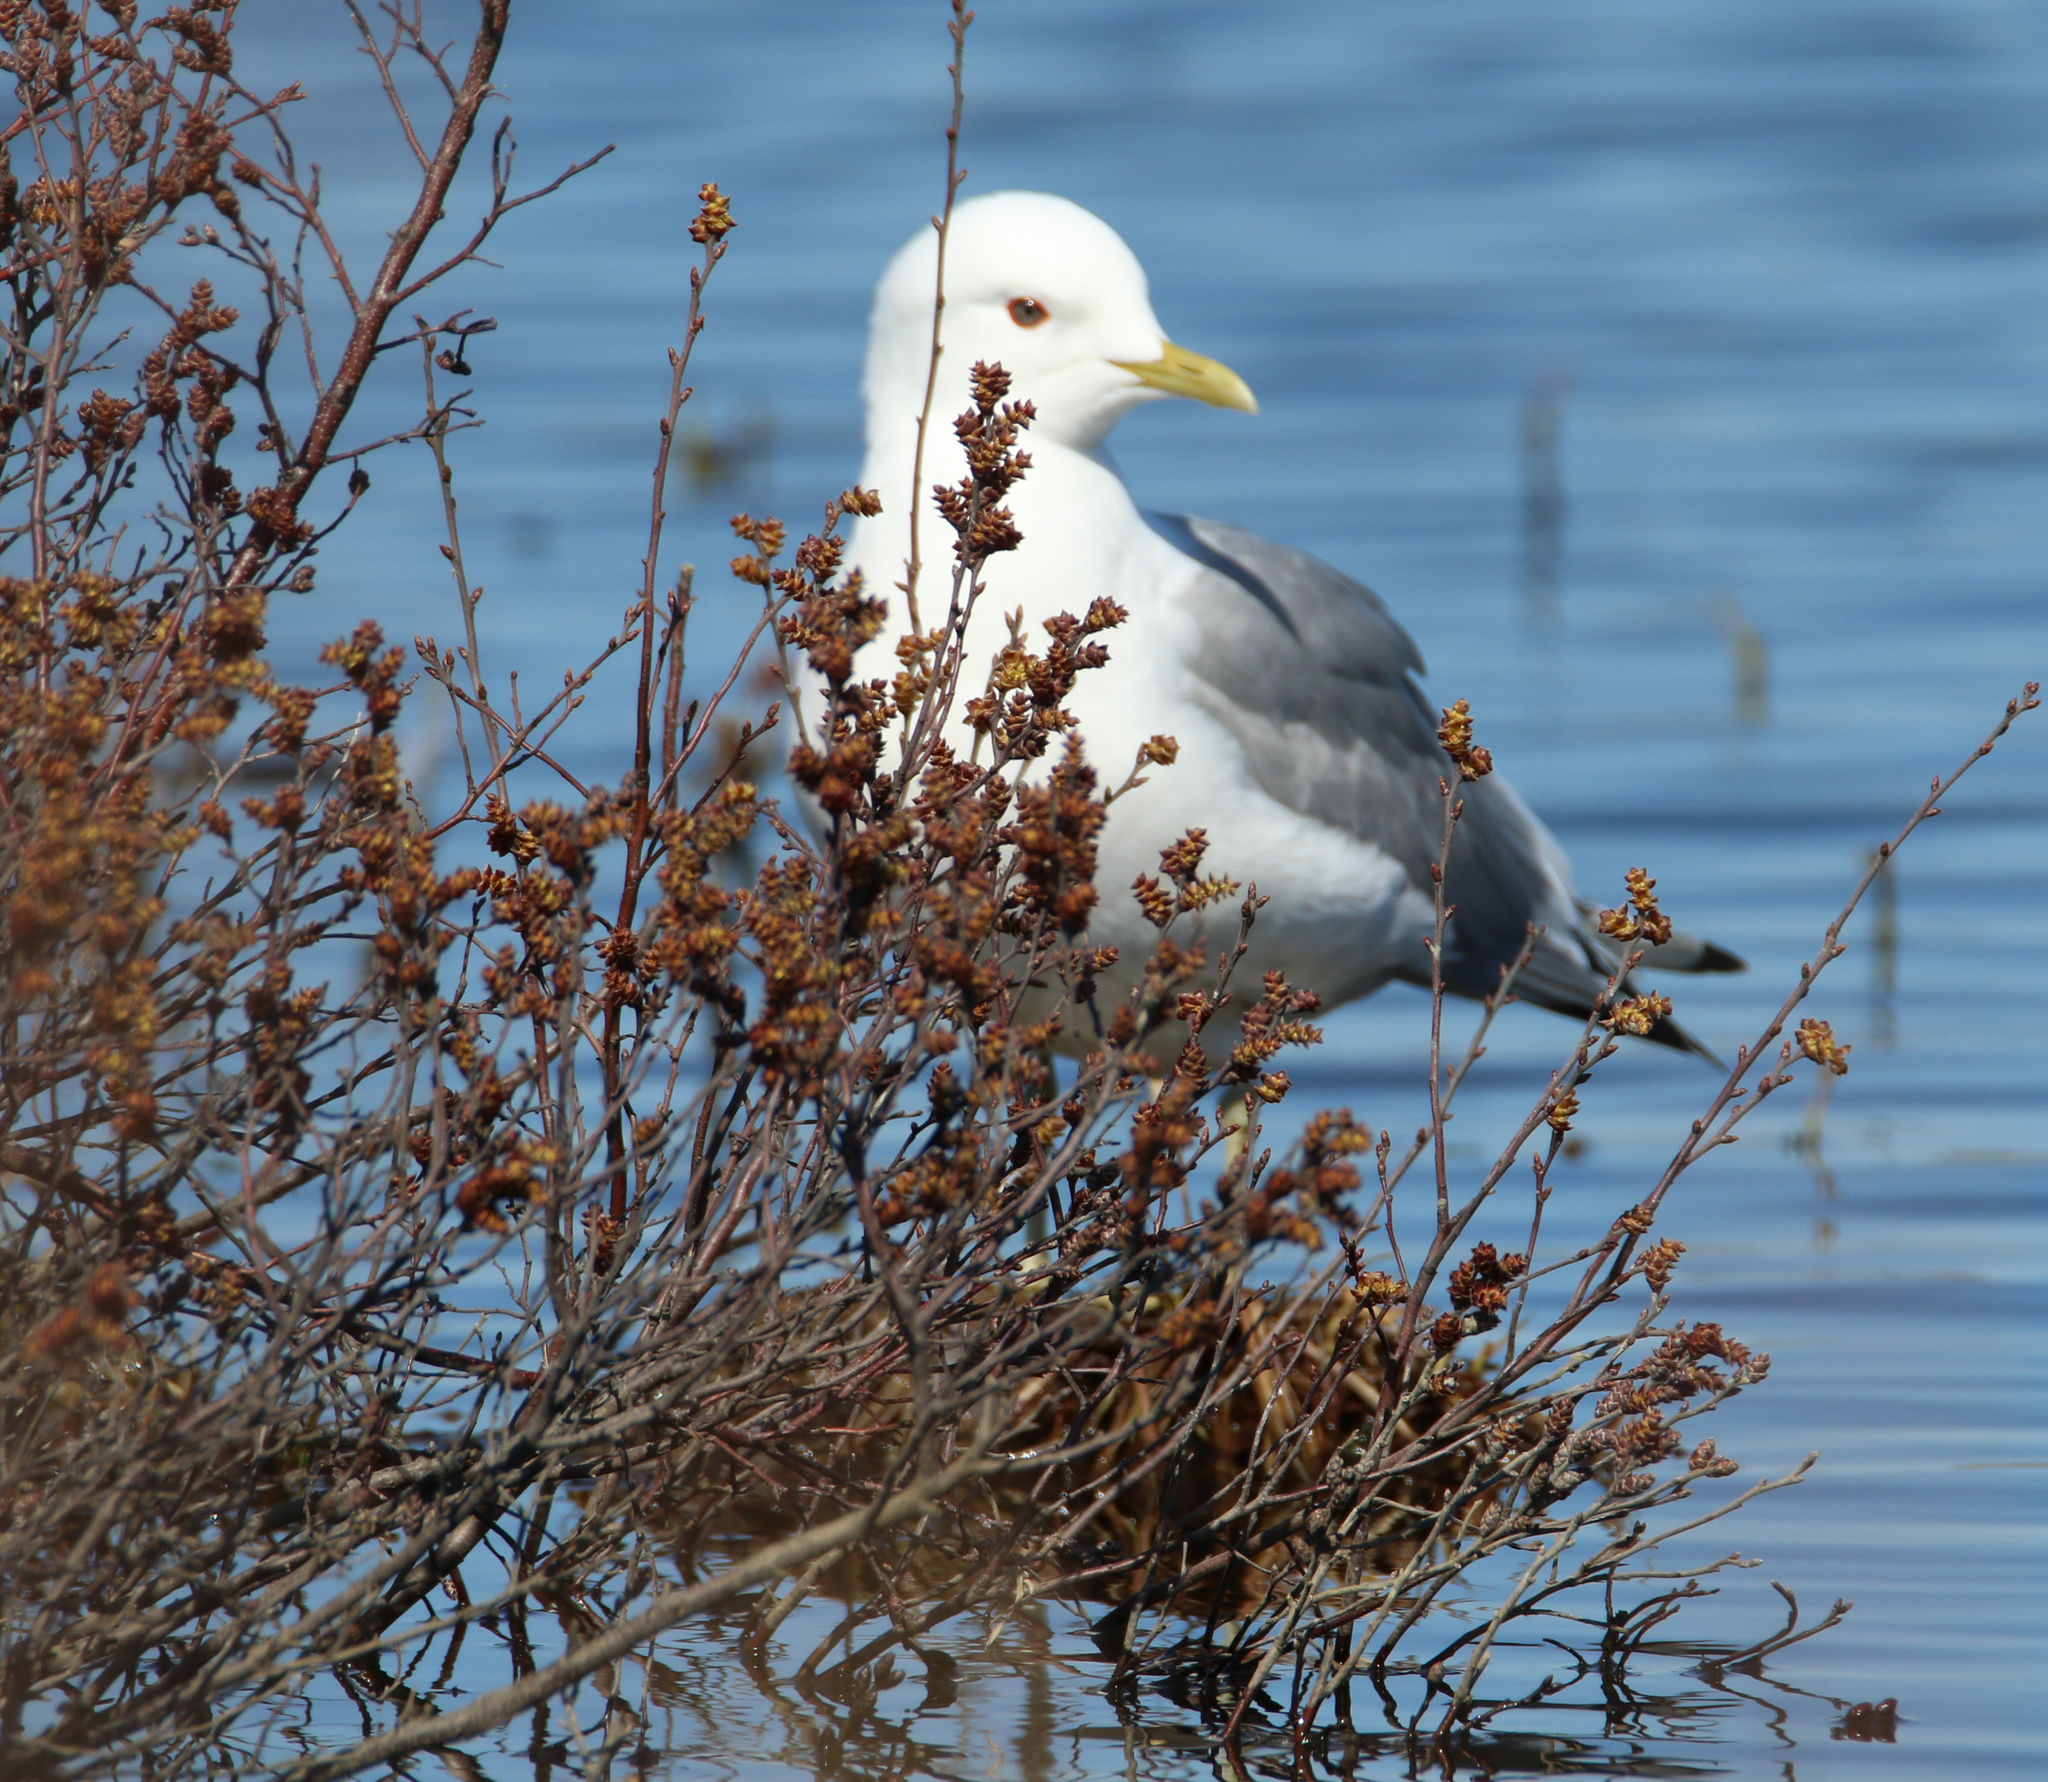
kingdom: Animalia
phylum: Chordata
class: Aves
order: Charadriiformes
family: Laridae
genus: Larus
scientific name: Larus brachyrhynchus
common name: Short-billed gull
